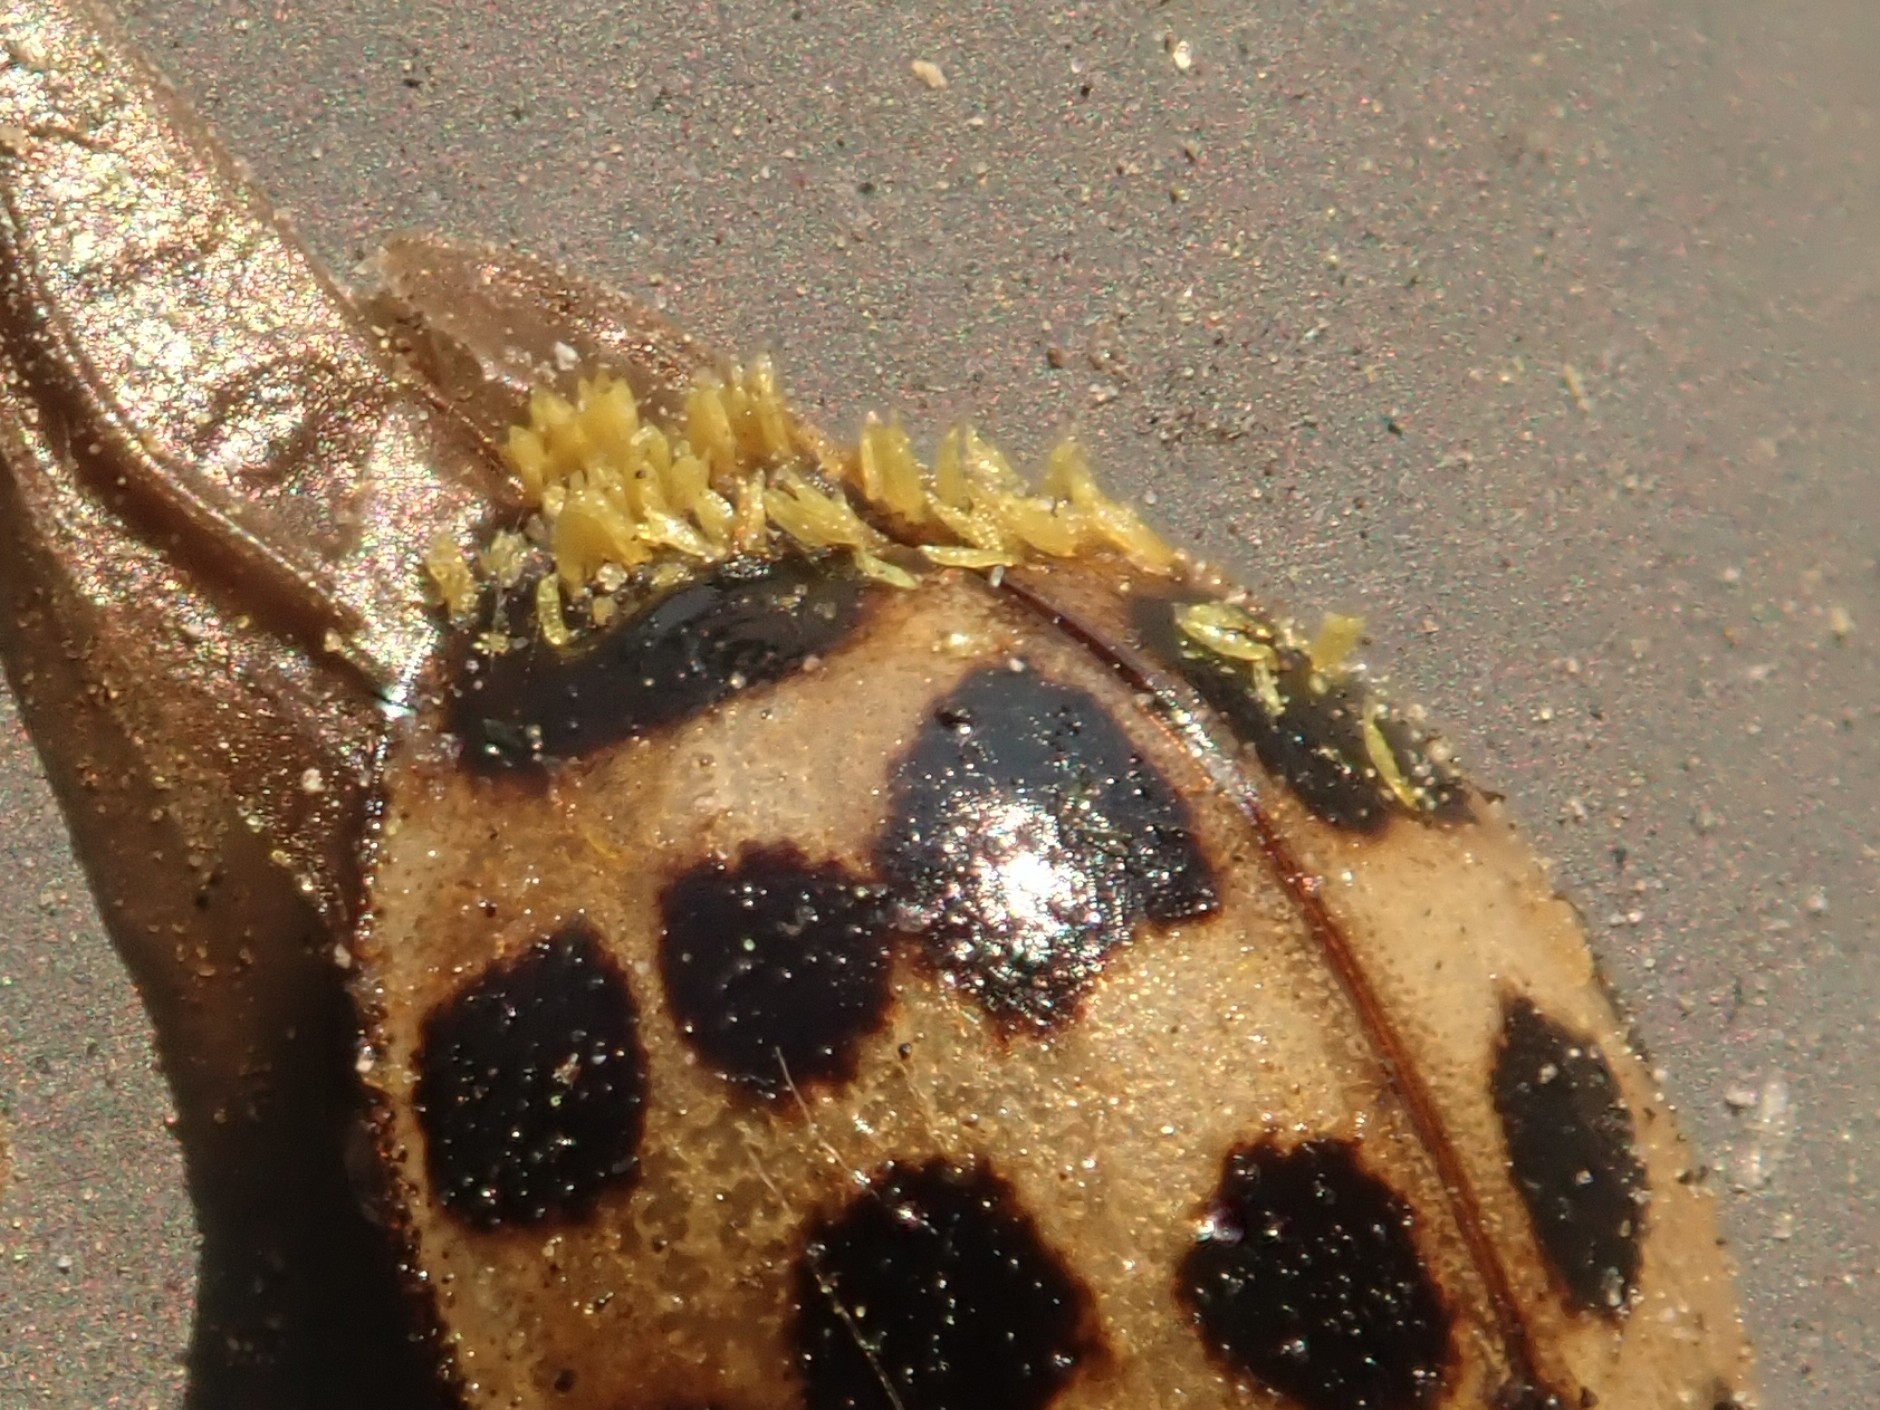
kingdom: Fungi
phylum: Ascomycota
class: Laboulbeniomycetes
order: Laboulbeniales
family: Laboulbeniaceae
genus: Hesperomyces
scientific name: Hesperomyces harmoniae
